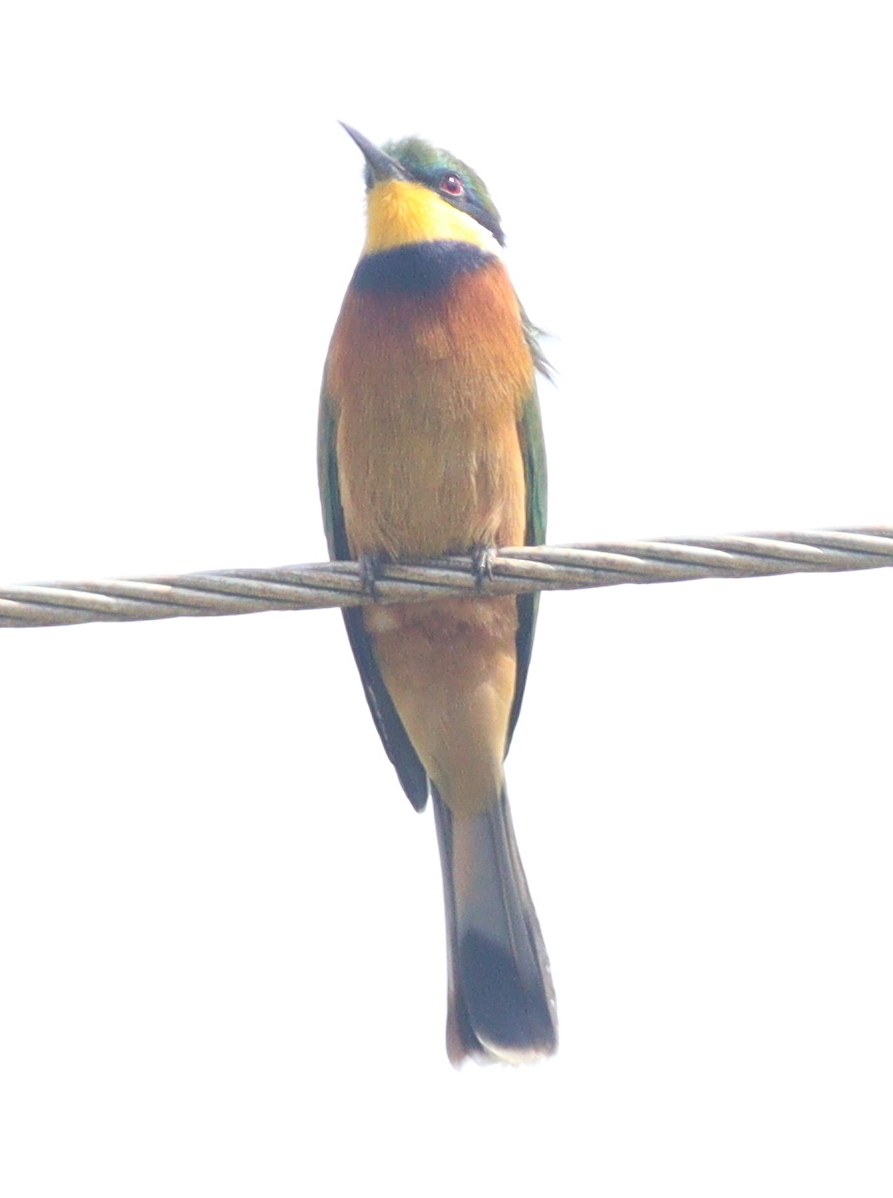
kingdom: Animalia
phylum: Chordata
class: Aves
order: Coraciiformes
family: Meropidae
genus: Merops
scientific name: Merops oreobates
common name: Cinnamon-chested bee-eater
